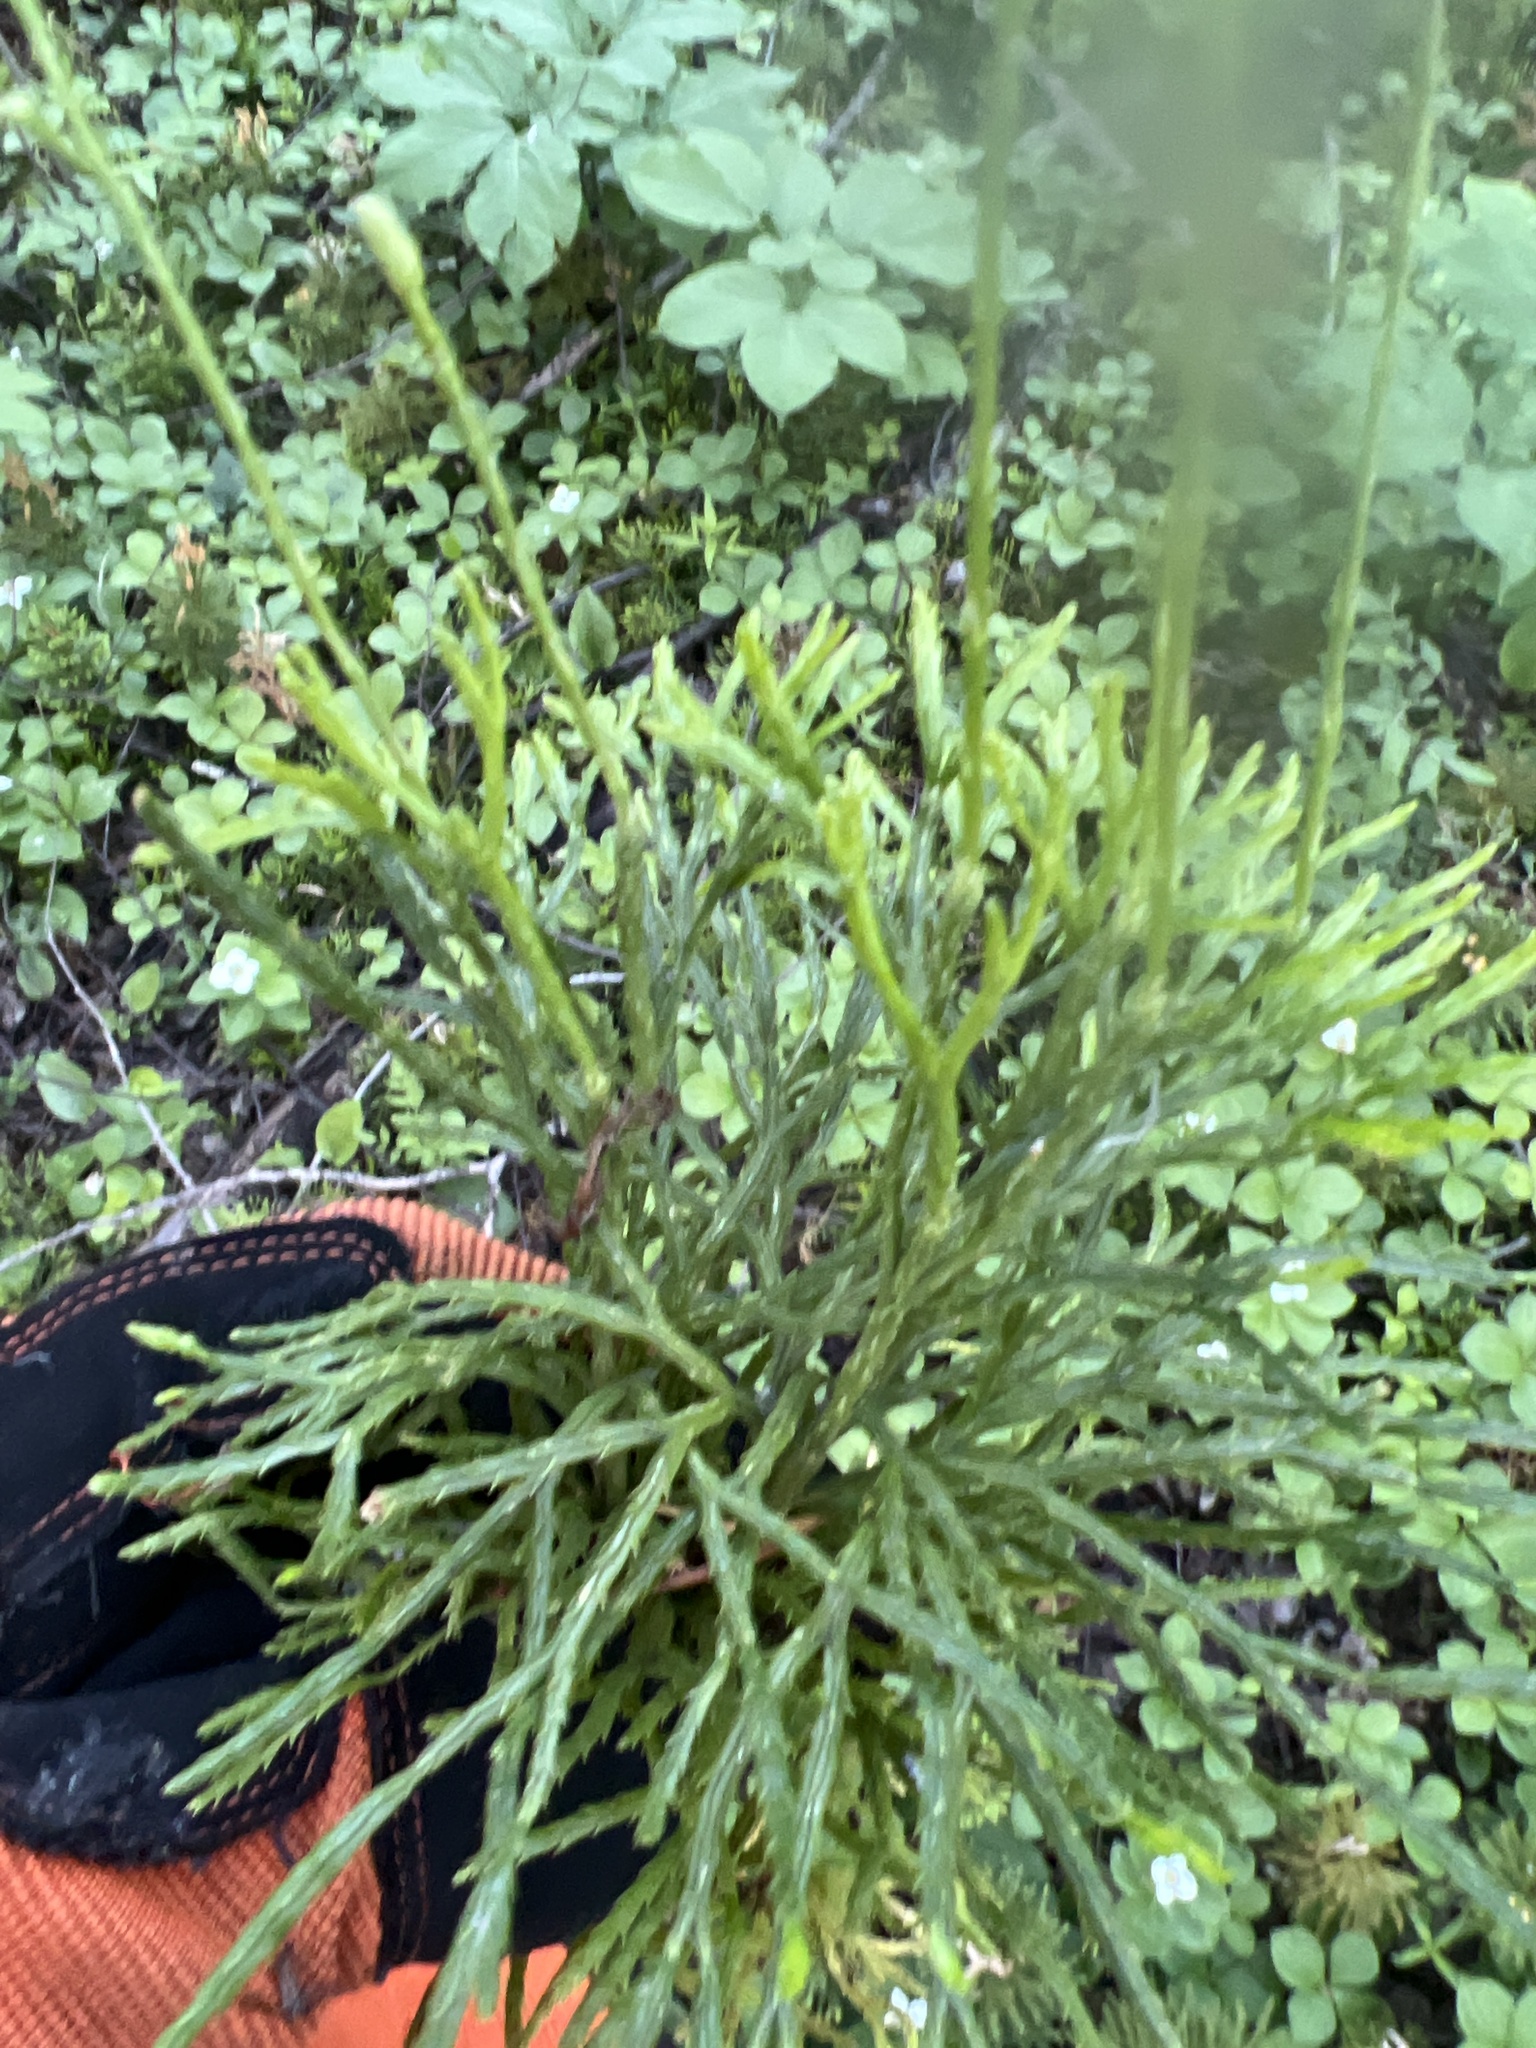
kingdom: Plantae
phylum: Tracheophyta
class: Lycopodiopsida
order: Lycopodiales
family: Lycopodiaceae
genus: Diphasiastrum
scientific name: Diphasiastrum complanatum
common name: Northern running-pine
